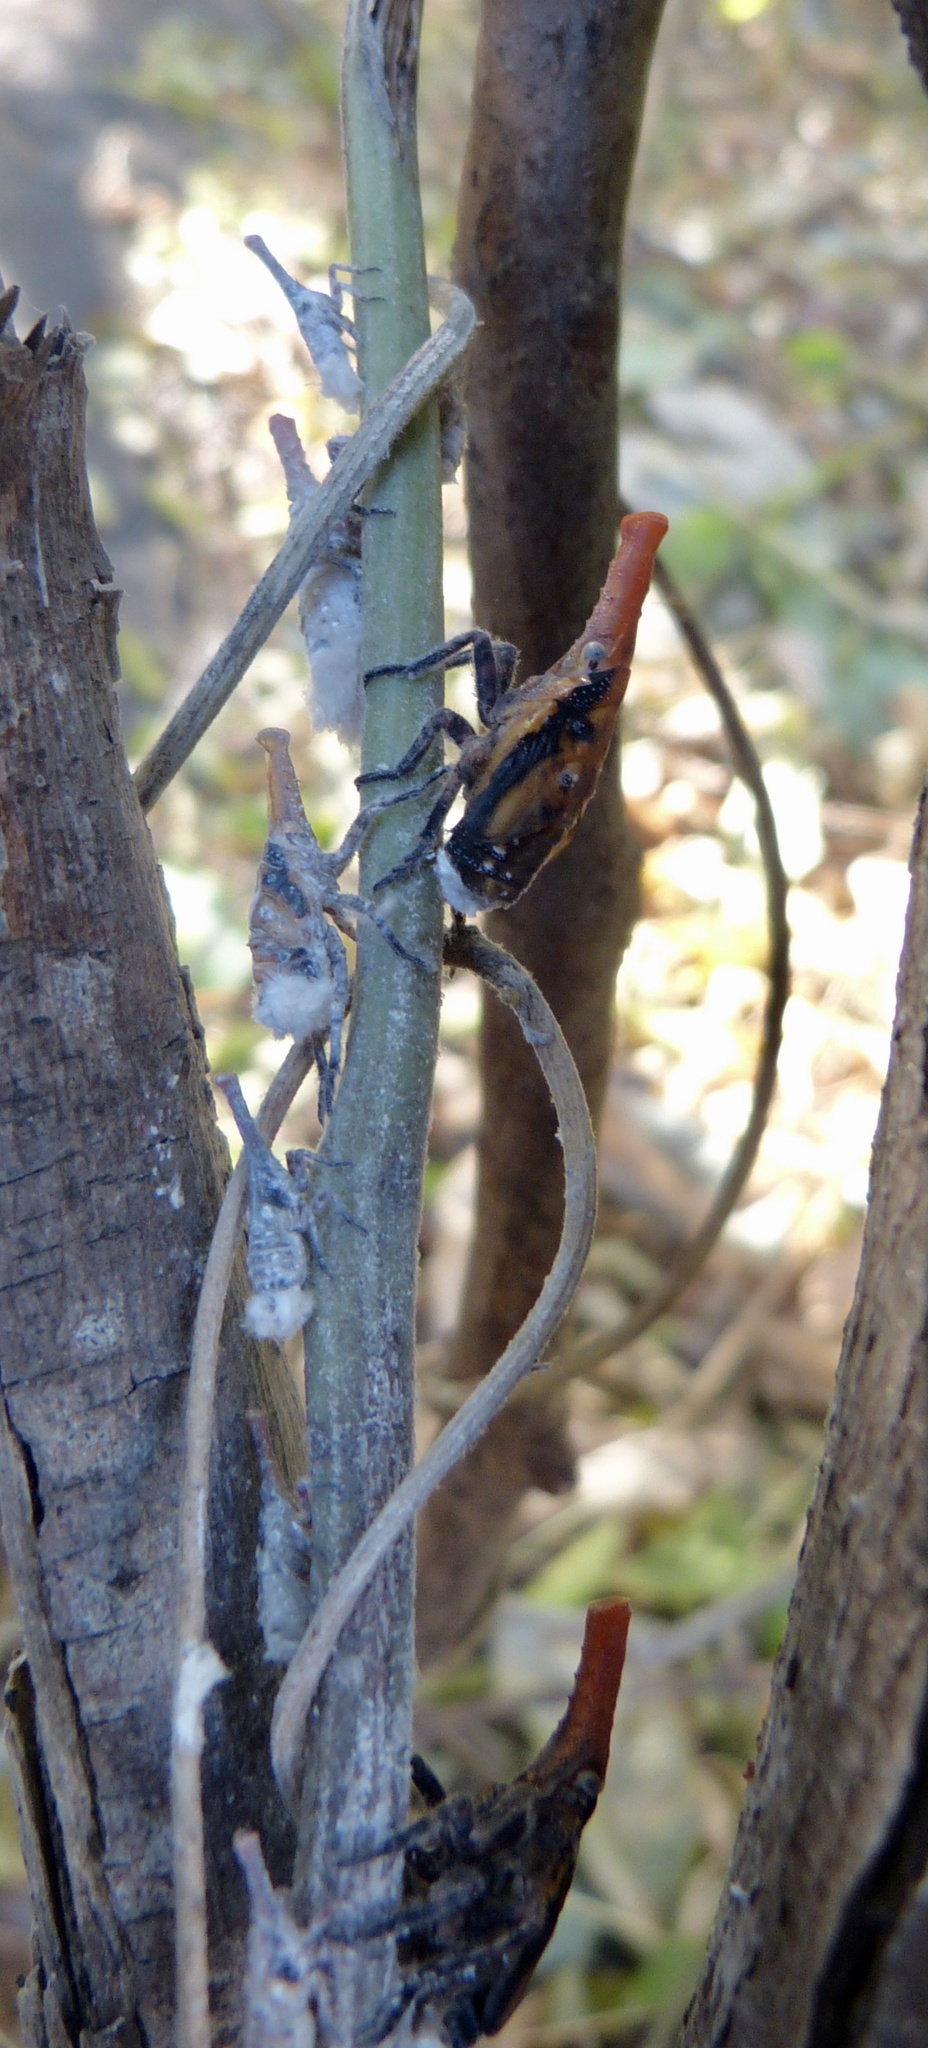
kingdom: Animalia
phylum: Arthropoda
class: Insecta
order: Hemiptera
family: Fulgoridae
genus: Zanna
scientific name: Zanna tenebrosa
